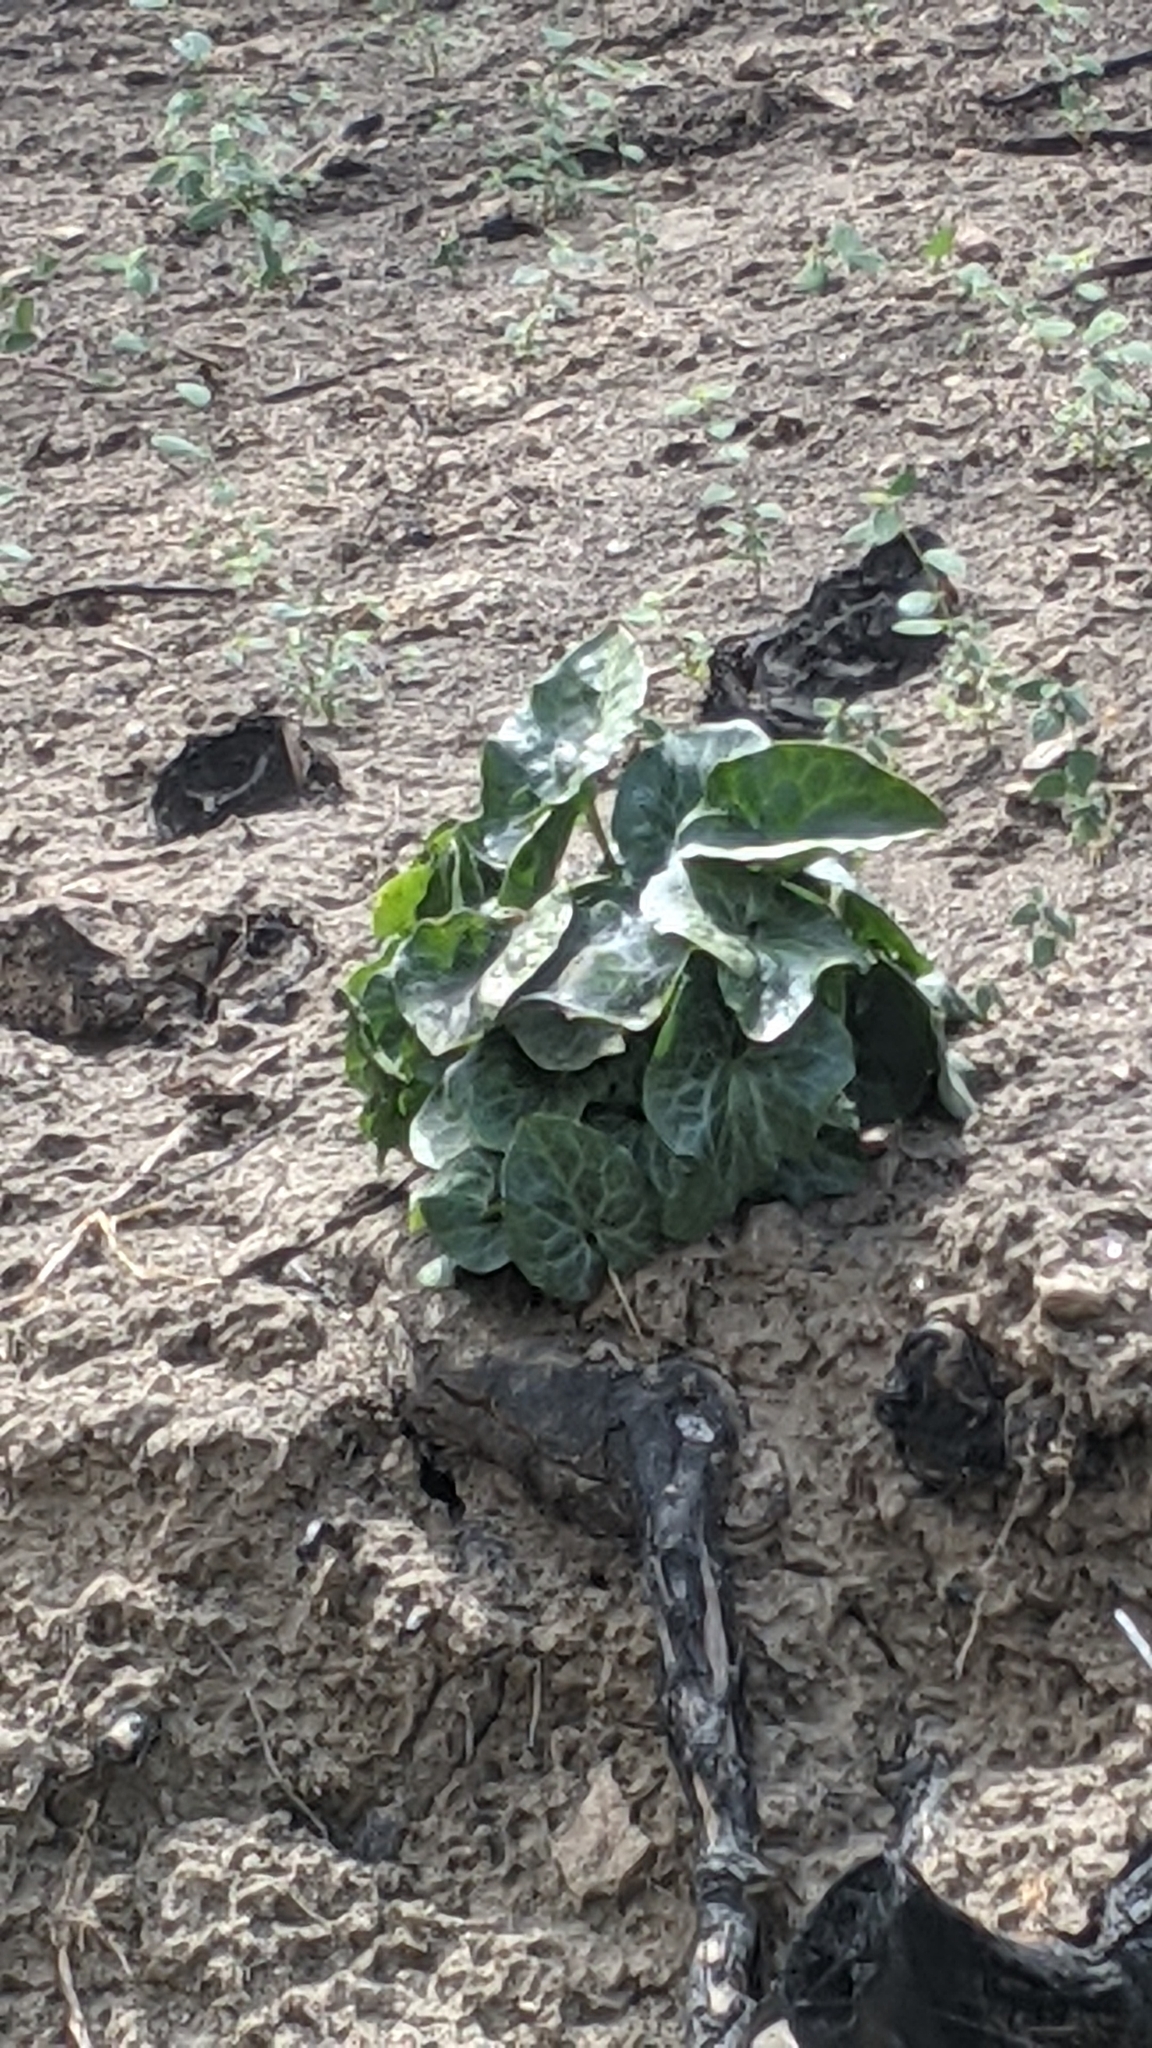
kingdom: Plantae
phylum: Tracheophyta
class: Magnoliopsida
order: Piperales
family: Aristolochiaceae
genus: Asarum
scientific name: Asarum hartwegii
